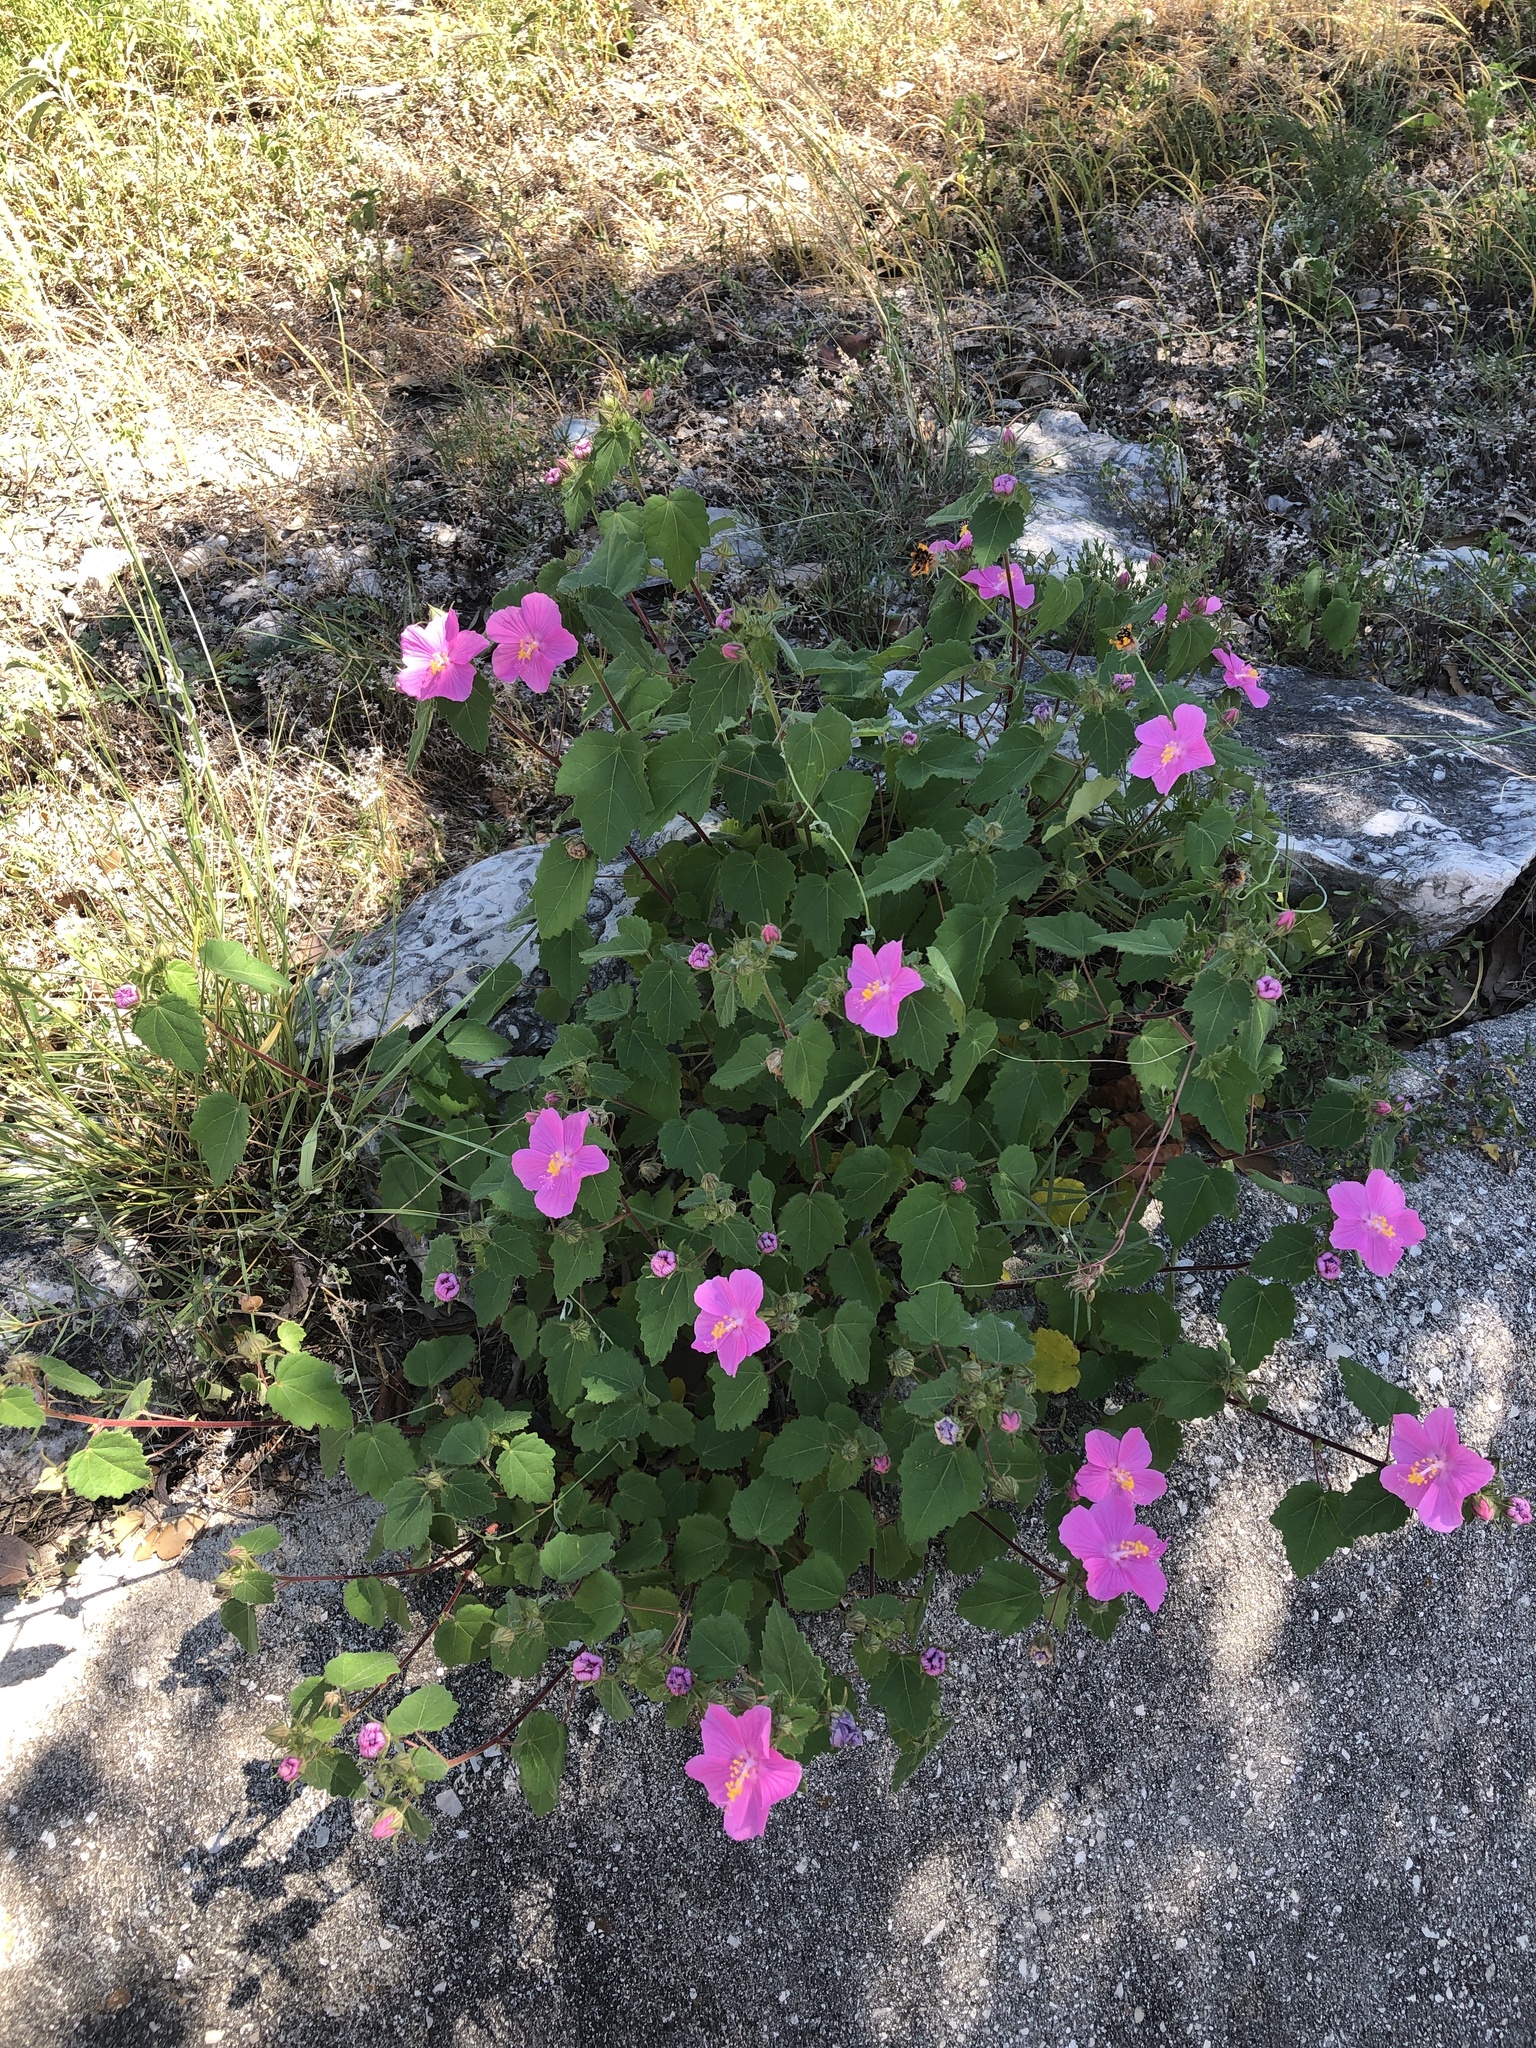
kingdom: Plantae
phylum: Tracheophyta
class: Magnoliopsida
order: Malvales
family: Malvaceae
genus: Pavonia
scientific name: Pavonia lasiopetala
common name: Texas swamp-mallow
